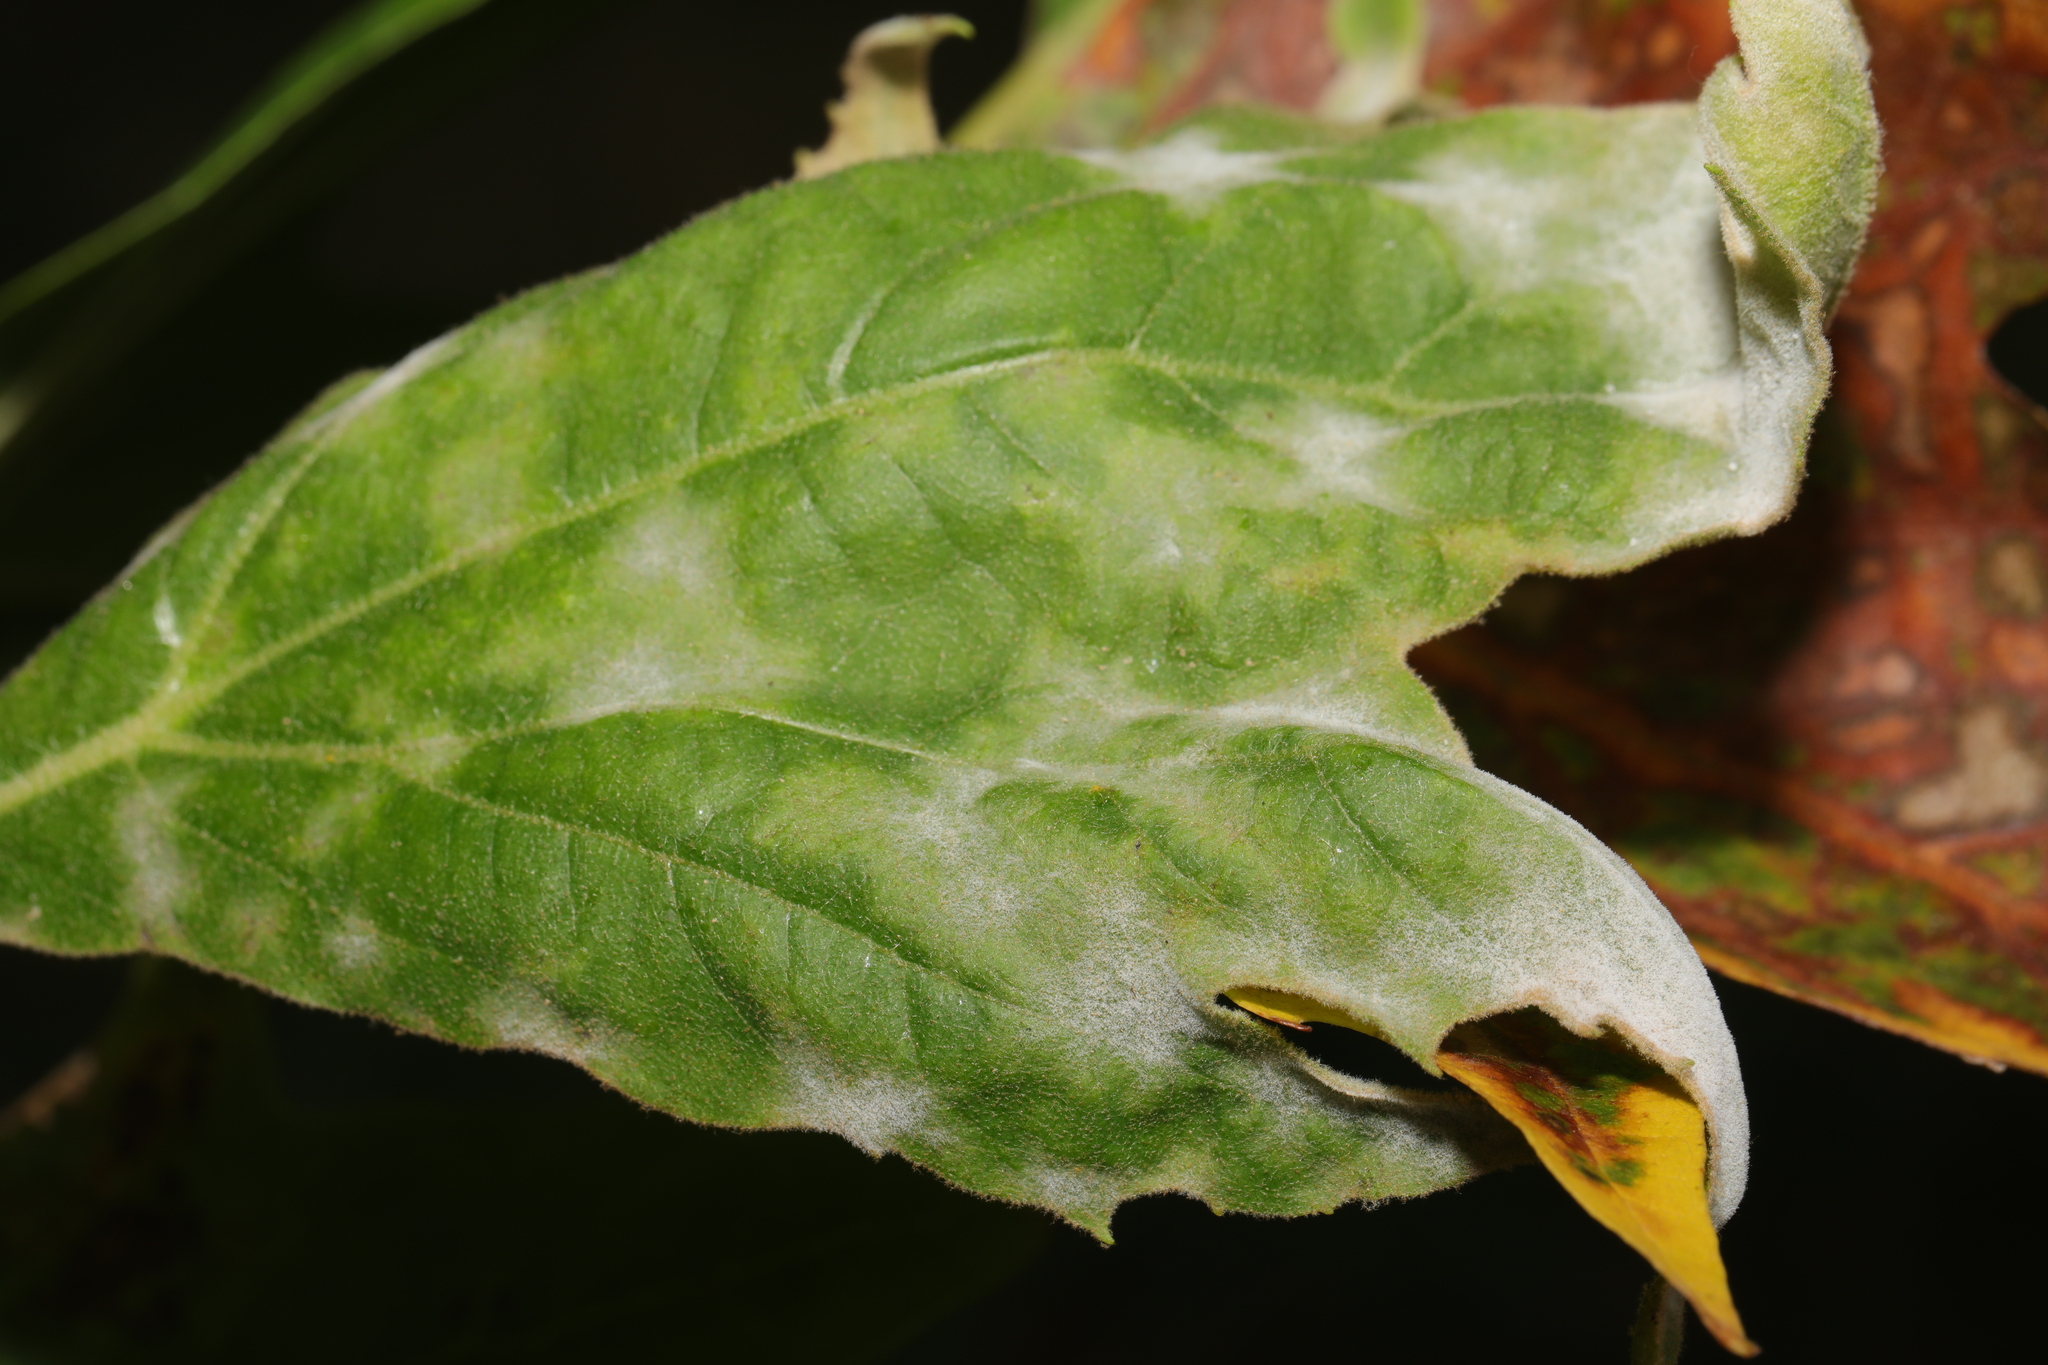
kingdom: Fungi
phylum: Ascomycota
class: Leotiomycetes
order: Helotiales
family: Erysiphaceae
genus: Erysiphe
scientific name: Erysiphe platani
